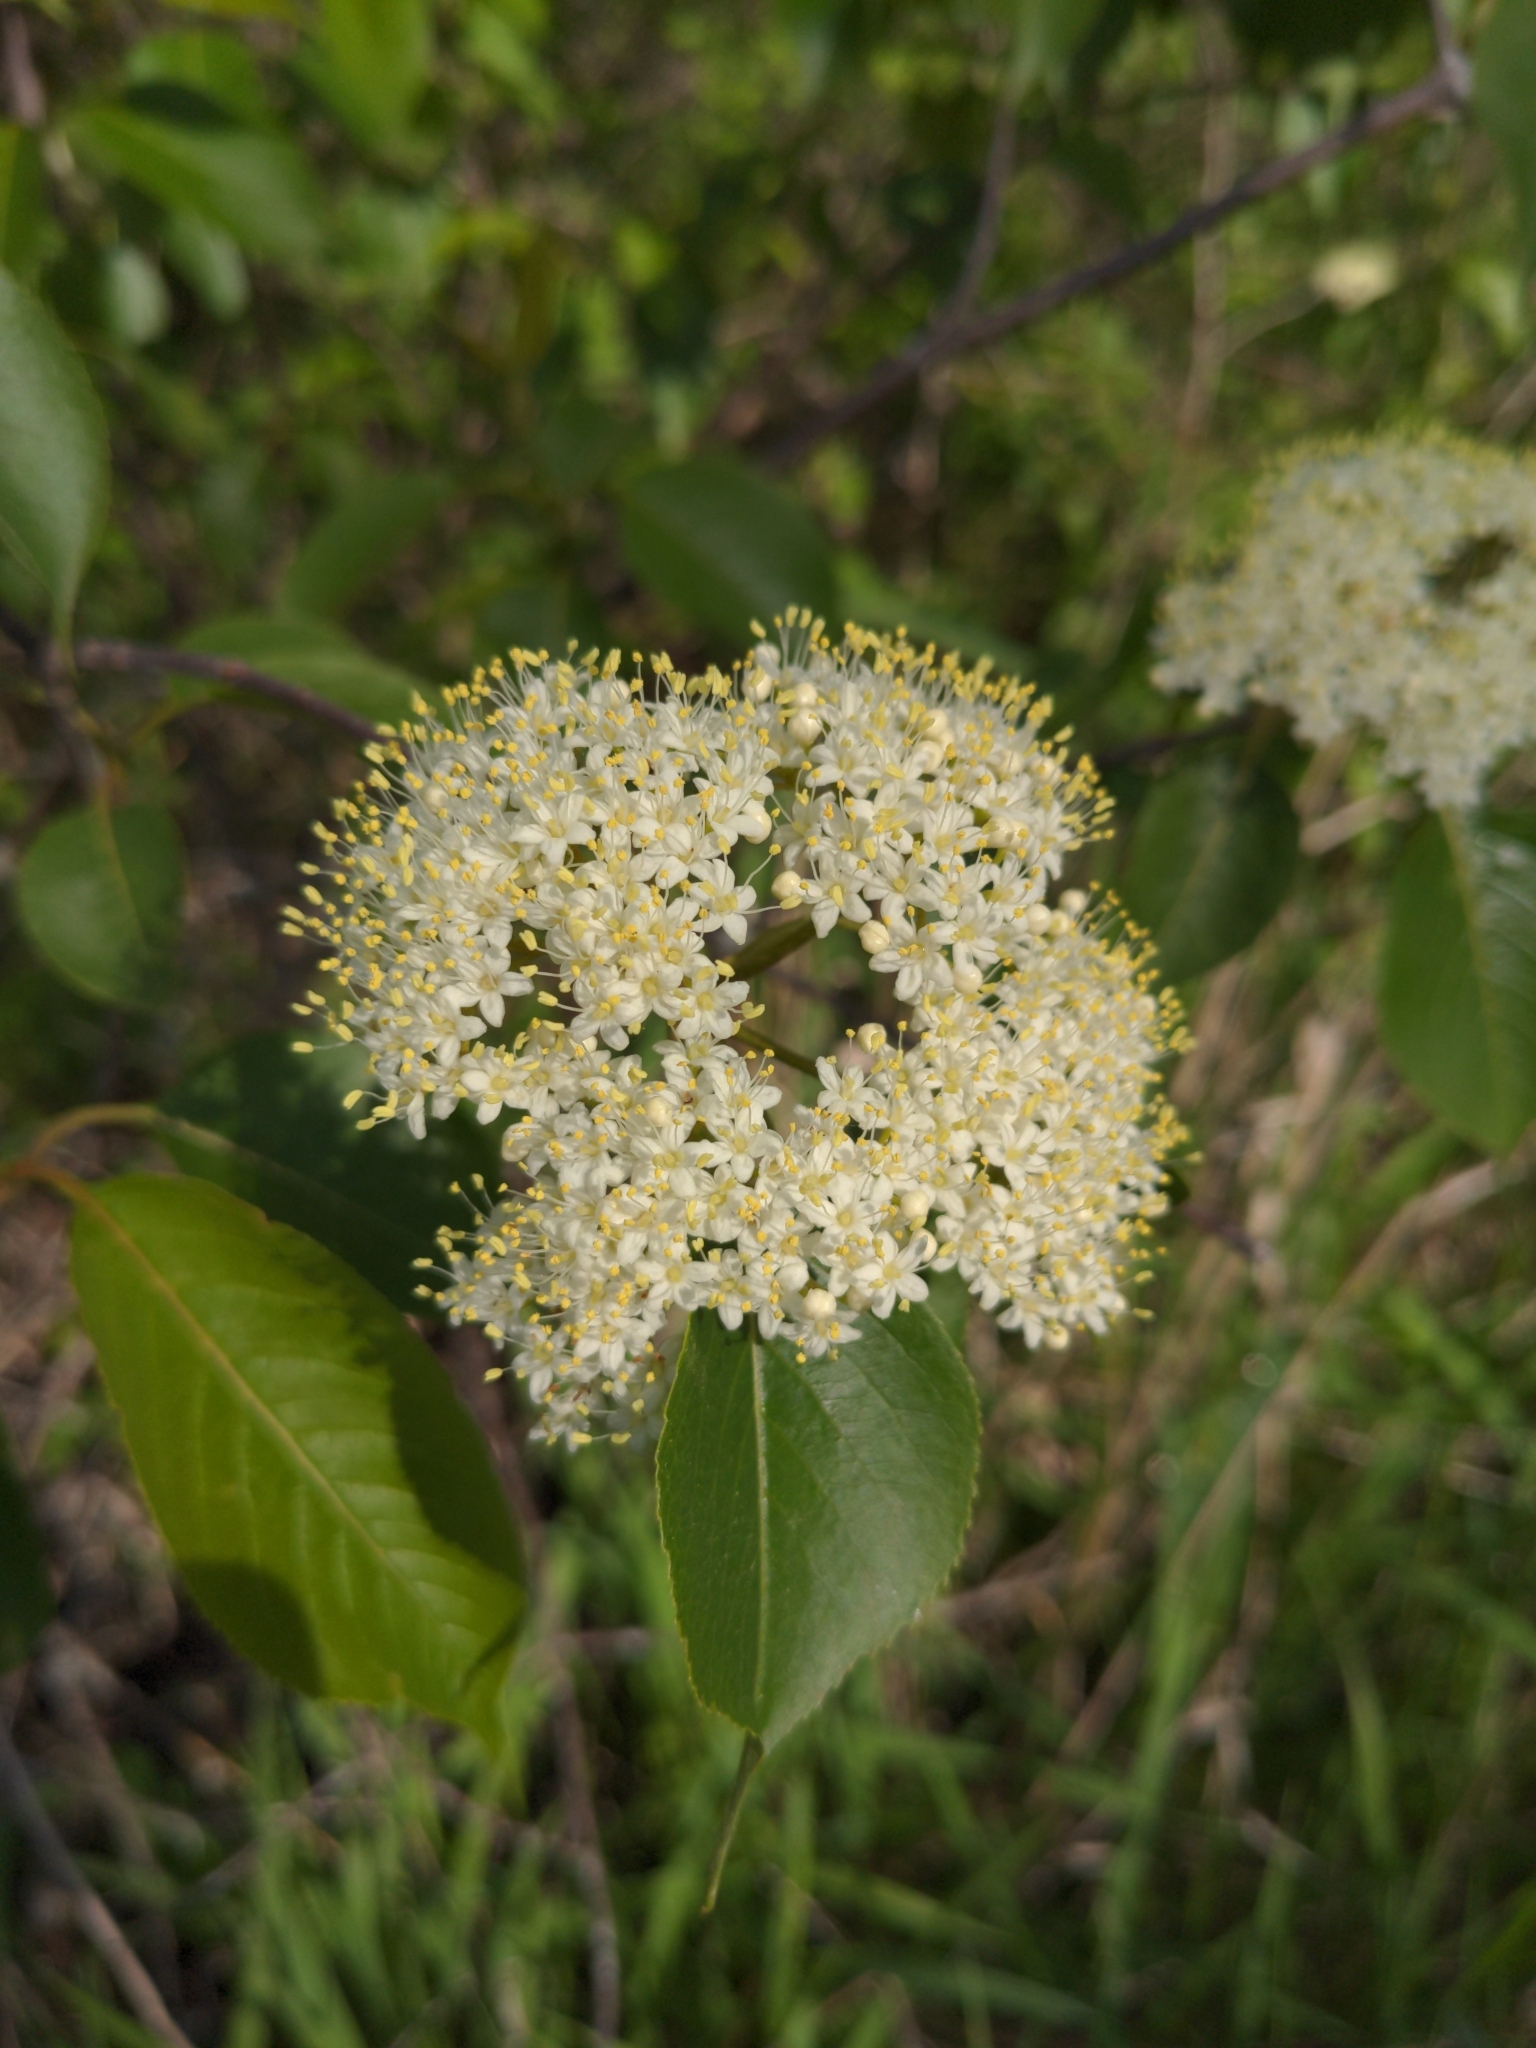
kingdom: Plantae
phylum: Tracheophyta
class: Magnoliopsida
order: Dipsacales
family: Viburnaceae
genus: Viburnum
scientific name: Viburnum lentago
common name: Black haw
